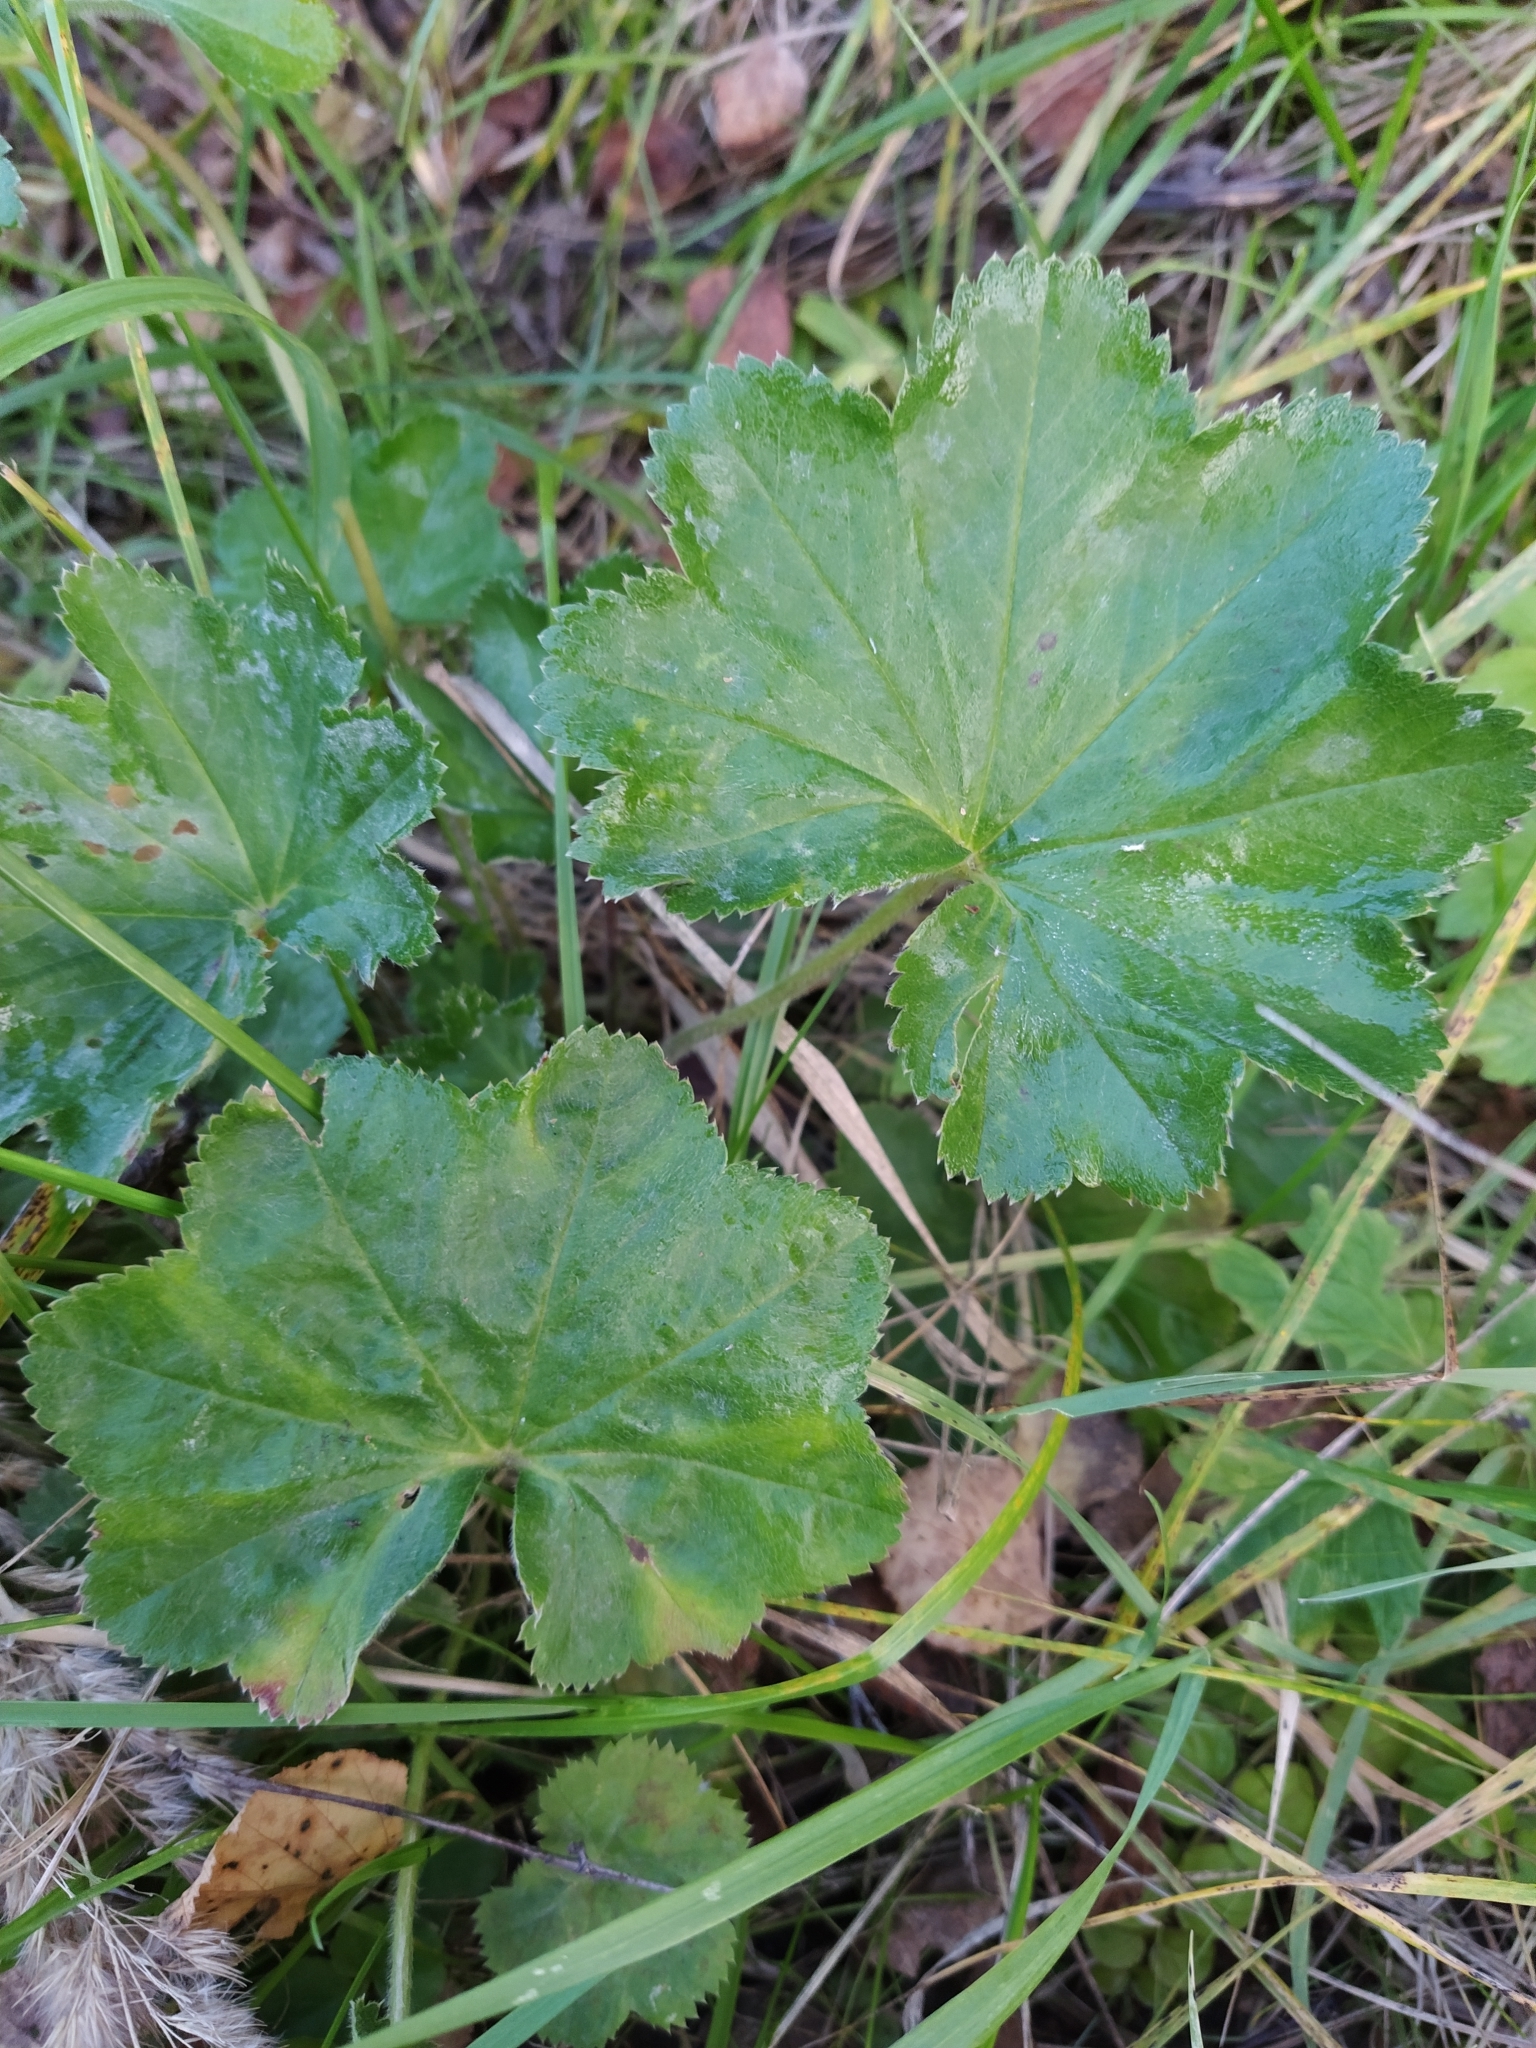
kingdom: Plantae
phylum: Tracheophyta
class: Magnoliopsida
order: Rosales
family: Rosaceae
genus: Alchemilla
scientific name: Alchemilla
